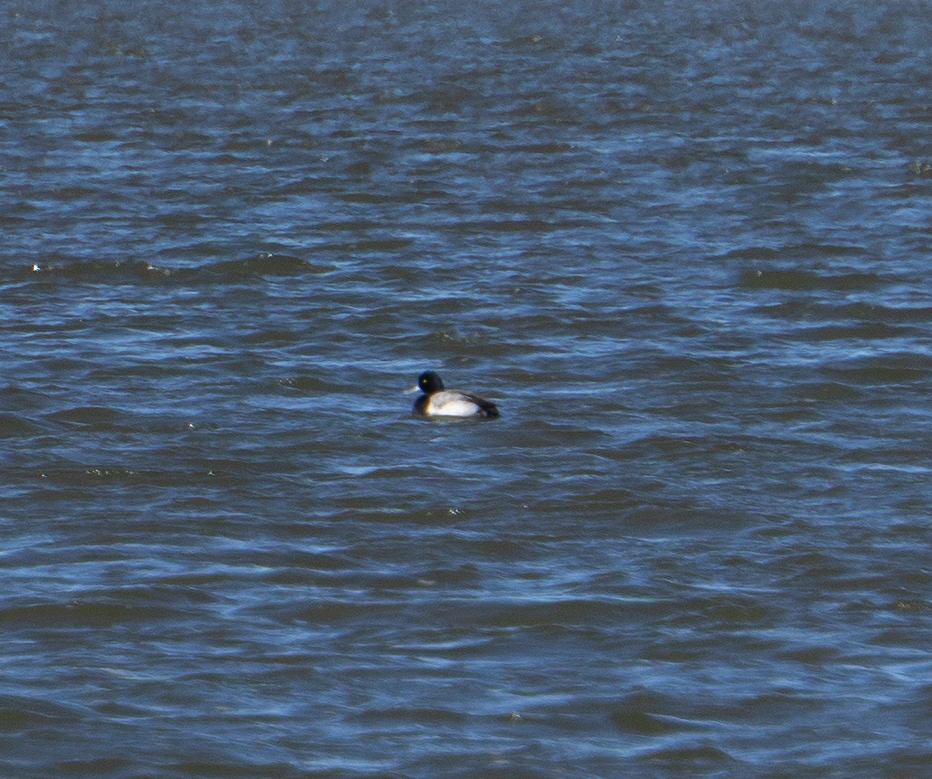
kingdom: Animalia
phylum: Chordata
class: Aves
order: Anseriformes
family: Anatidae
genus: Aythya
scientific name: Aythya affinis
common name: Lesser scaup
